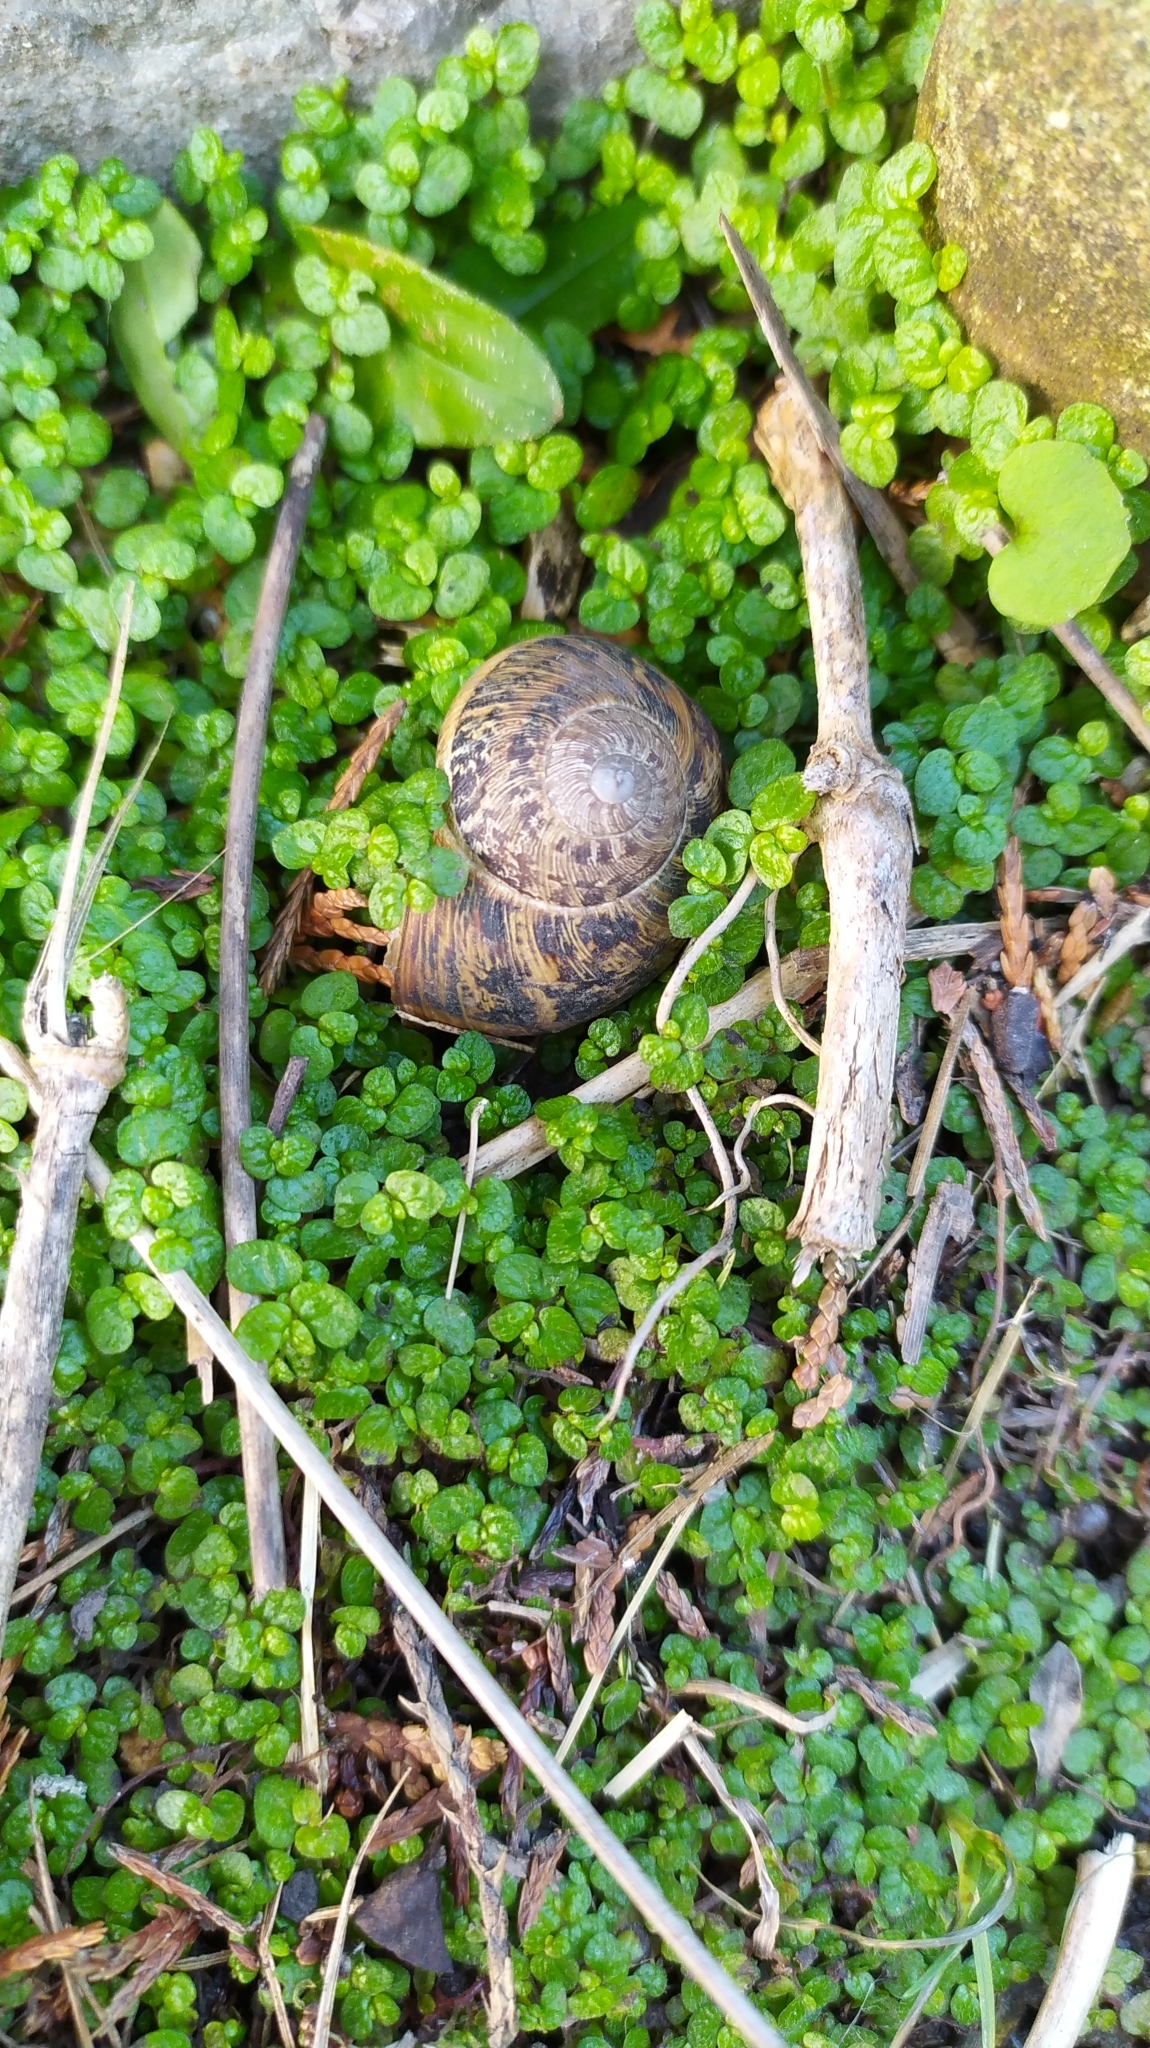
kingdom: Animalia
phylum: Mollusca
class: Gastropoda
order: Stylommatophora
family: Helicidae
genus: Cornu
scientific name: Cornu aspersum
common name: Brown garden snail
